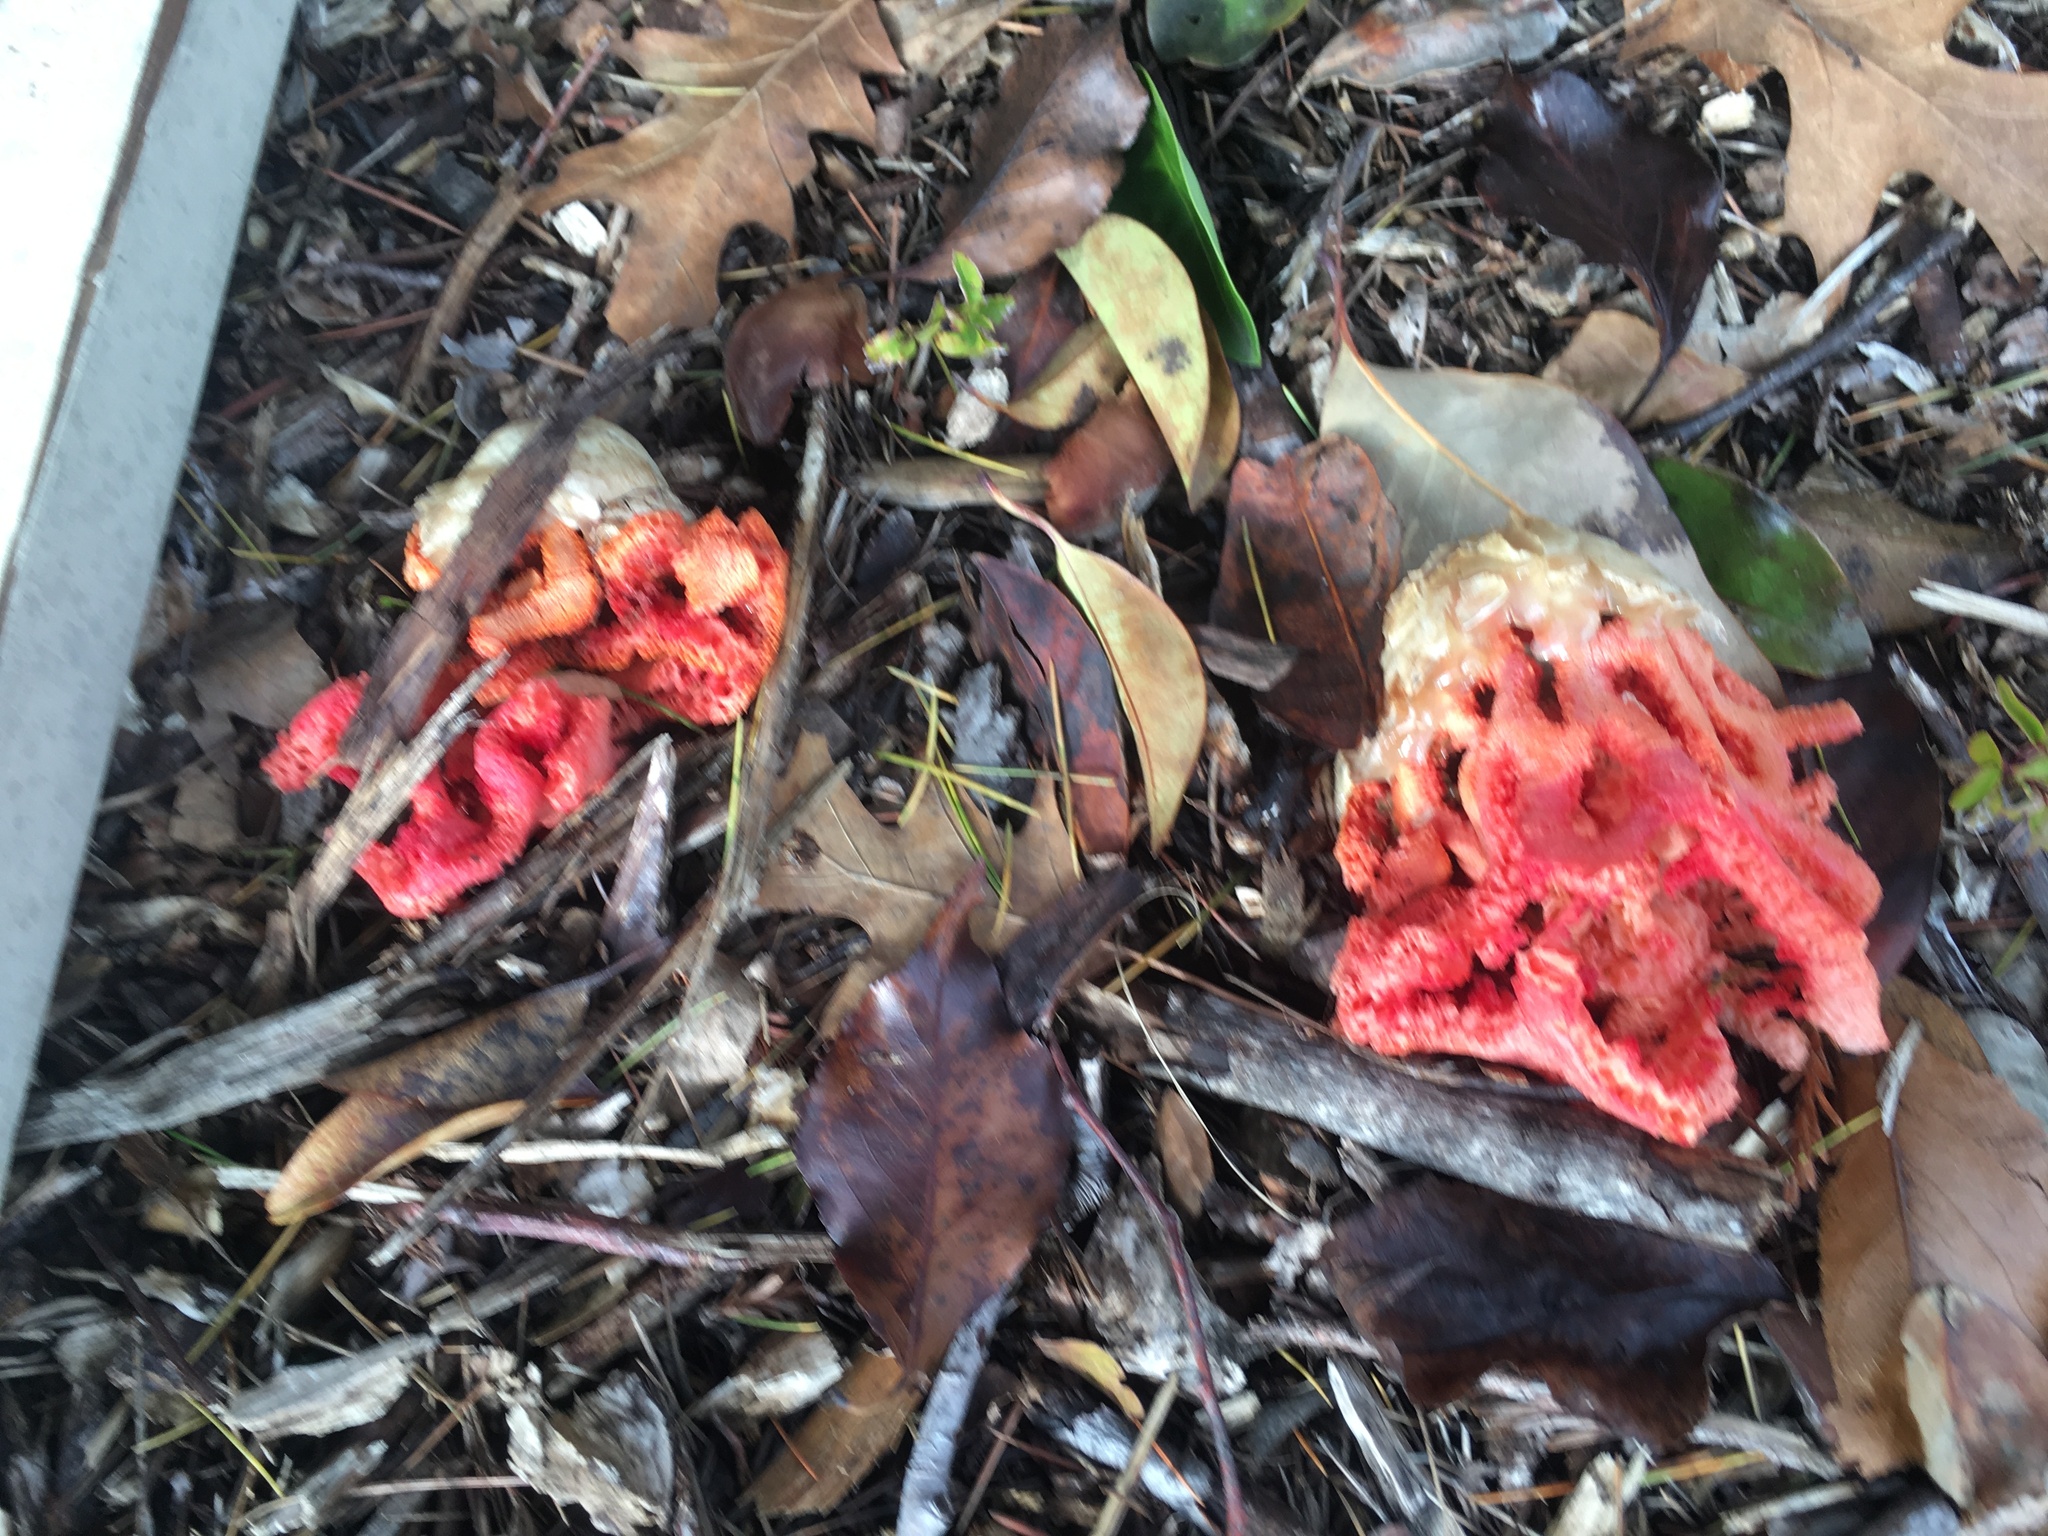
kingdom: Fungi
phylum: Basidiomycota
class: Agaricomycetes
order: Phallales
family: Phallaceae
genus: Clathrus
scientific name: Clathrus ruber
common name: Red cage
